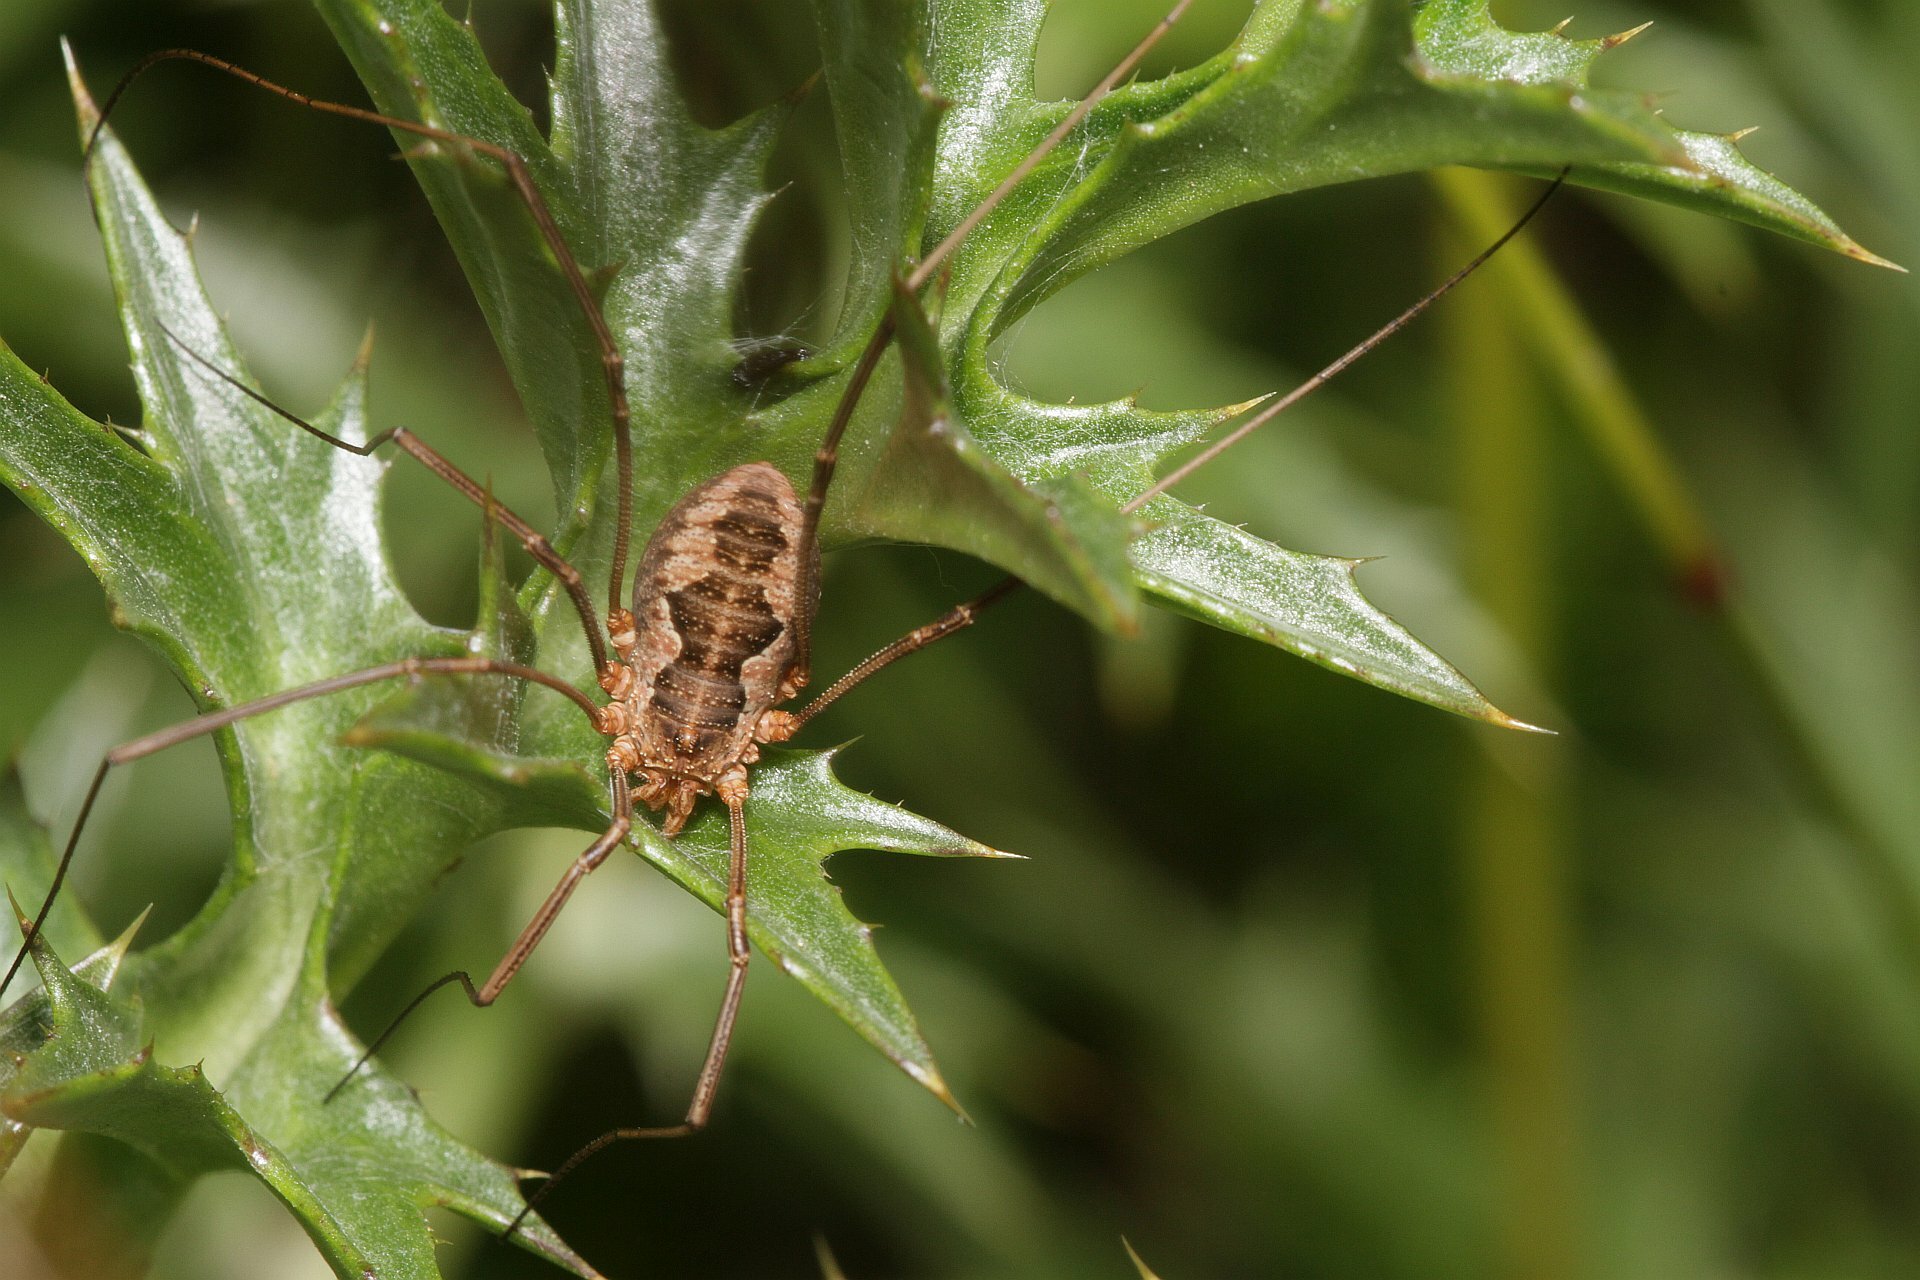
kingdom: Animalia
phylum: Arthropoda
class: Arachnida
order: Opiliones
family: Phalangiidae
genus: Phalangium
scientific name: Phalangium opilio
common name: Daddy longleg
